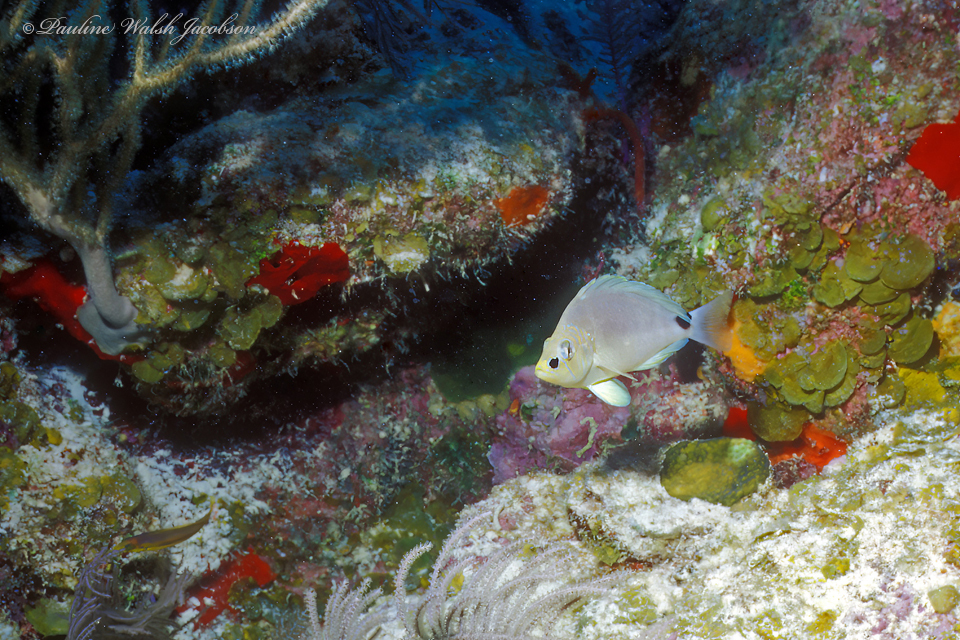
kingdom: Animalia
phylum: Chordata
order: Perciformes
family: Serranidae
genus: Hypoplectrus
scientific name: Hypoplectrus unicolor
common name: Butter hamlet
